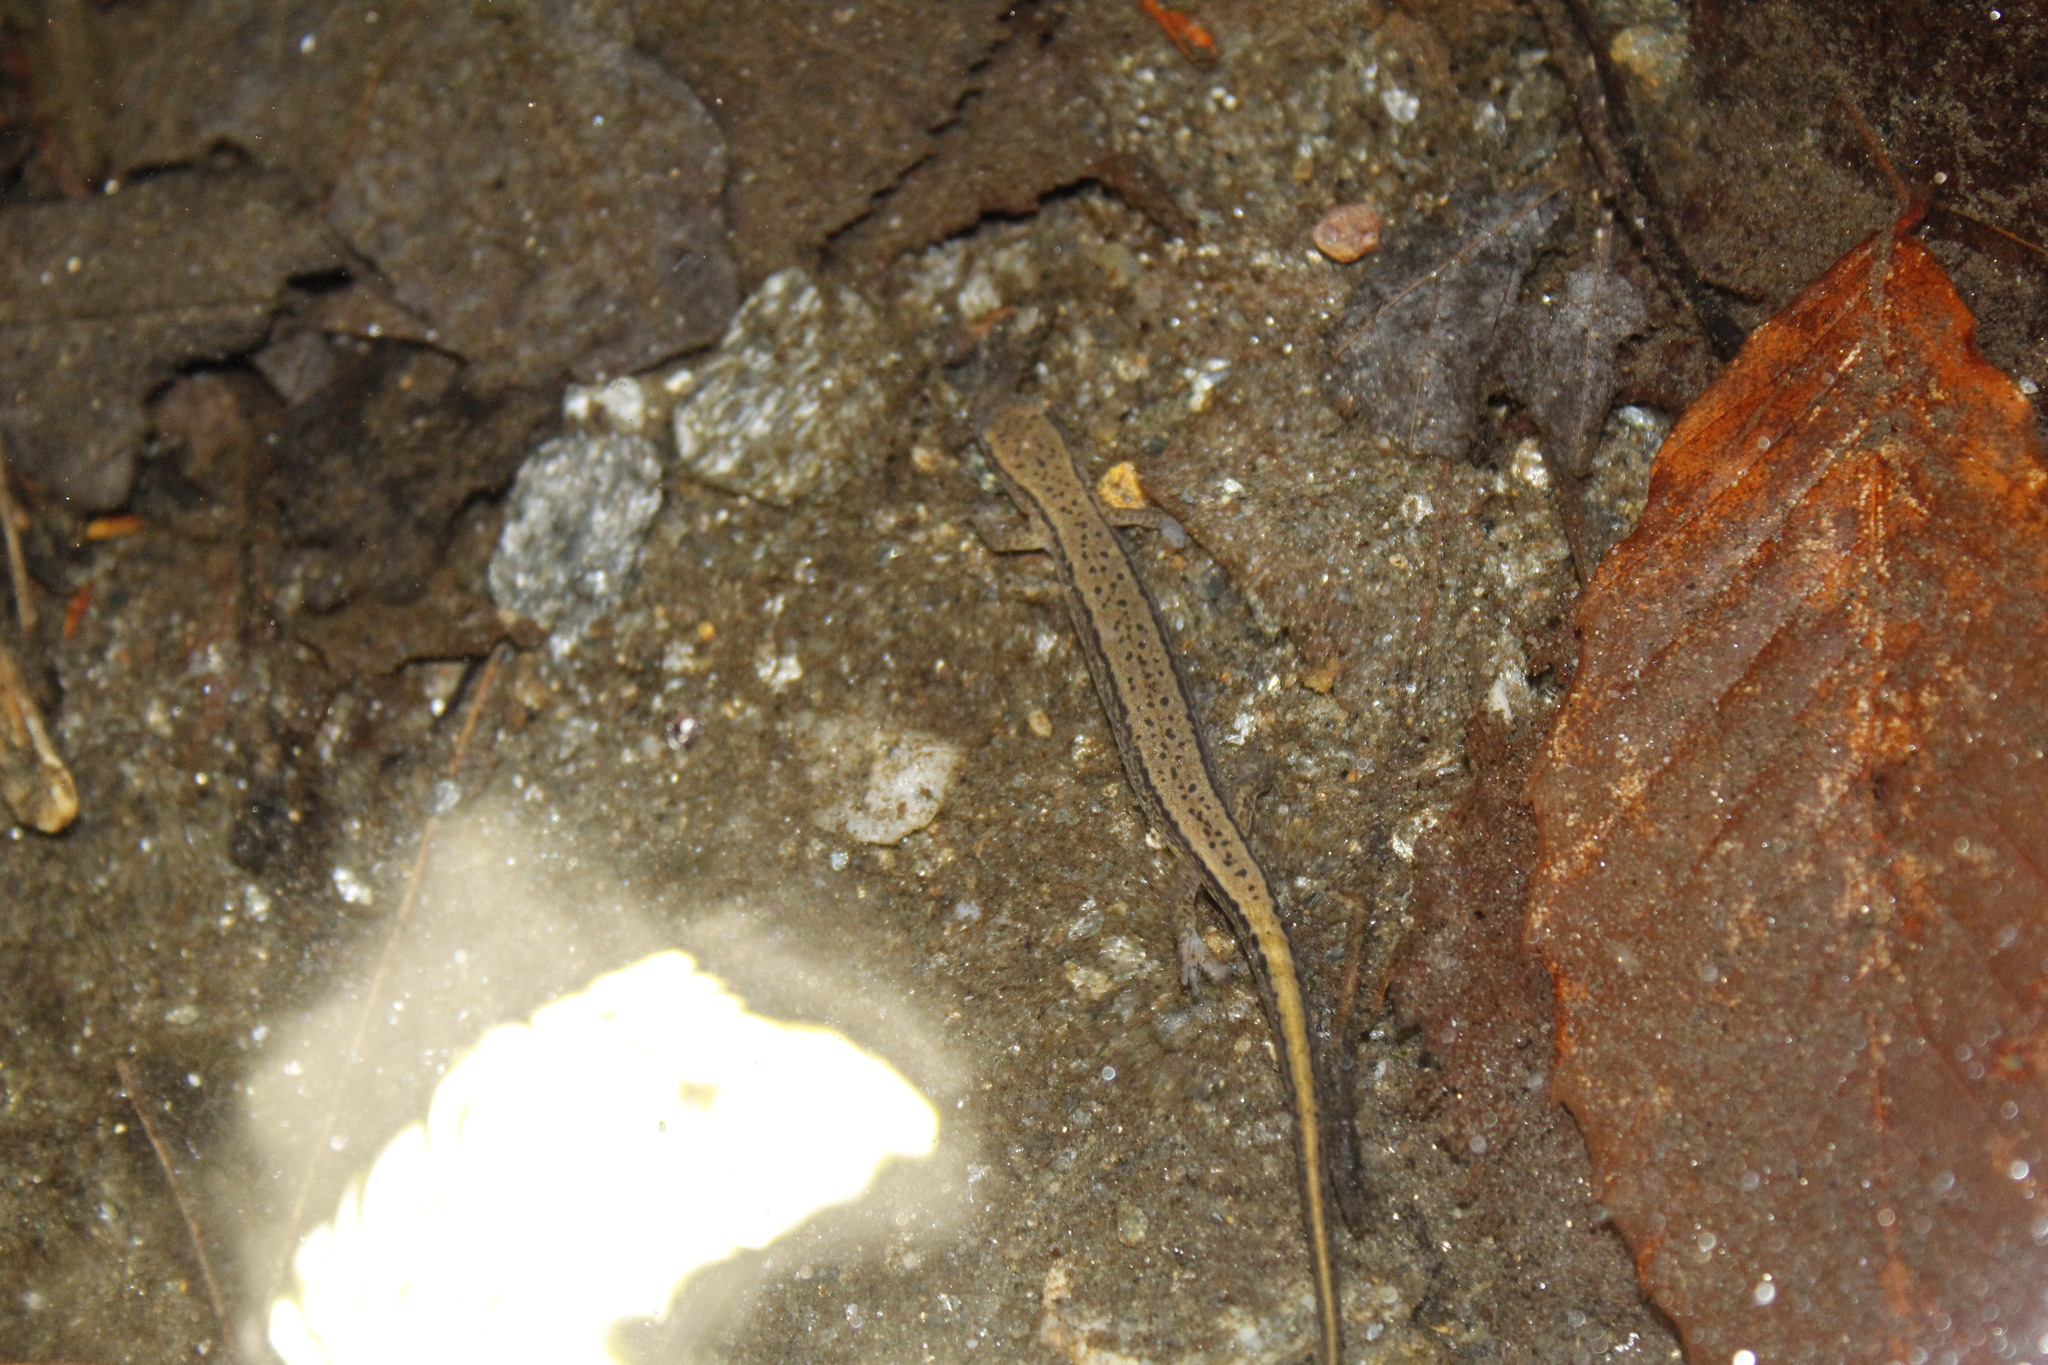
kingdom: Animalia
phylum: Chordata
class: Amphibia
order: Caudata
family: Plethodontidae
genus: Eurycea
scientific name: Eurycea bislineata
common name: Northern two-lined salamander
